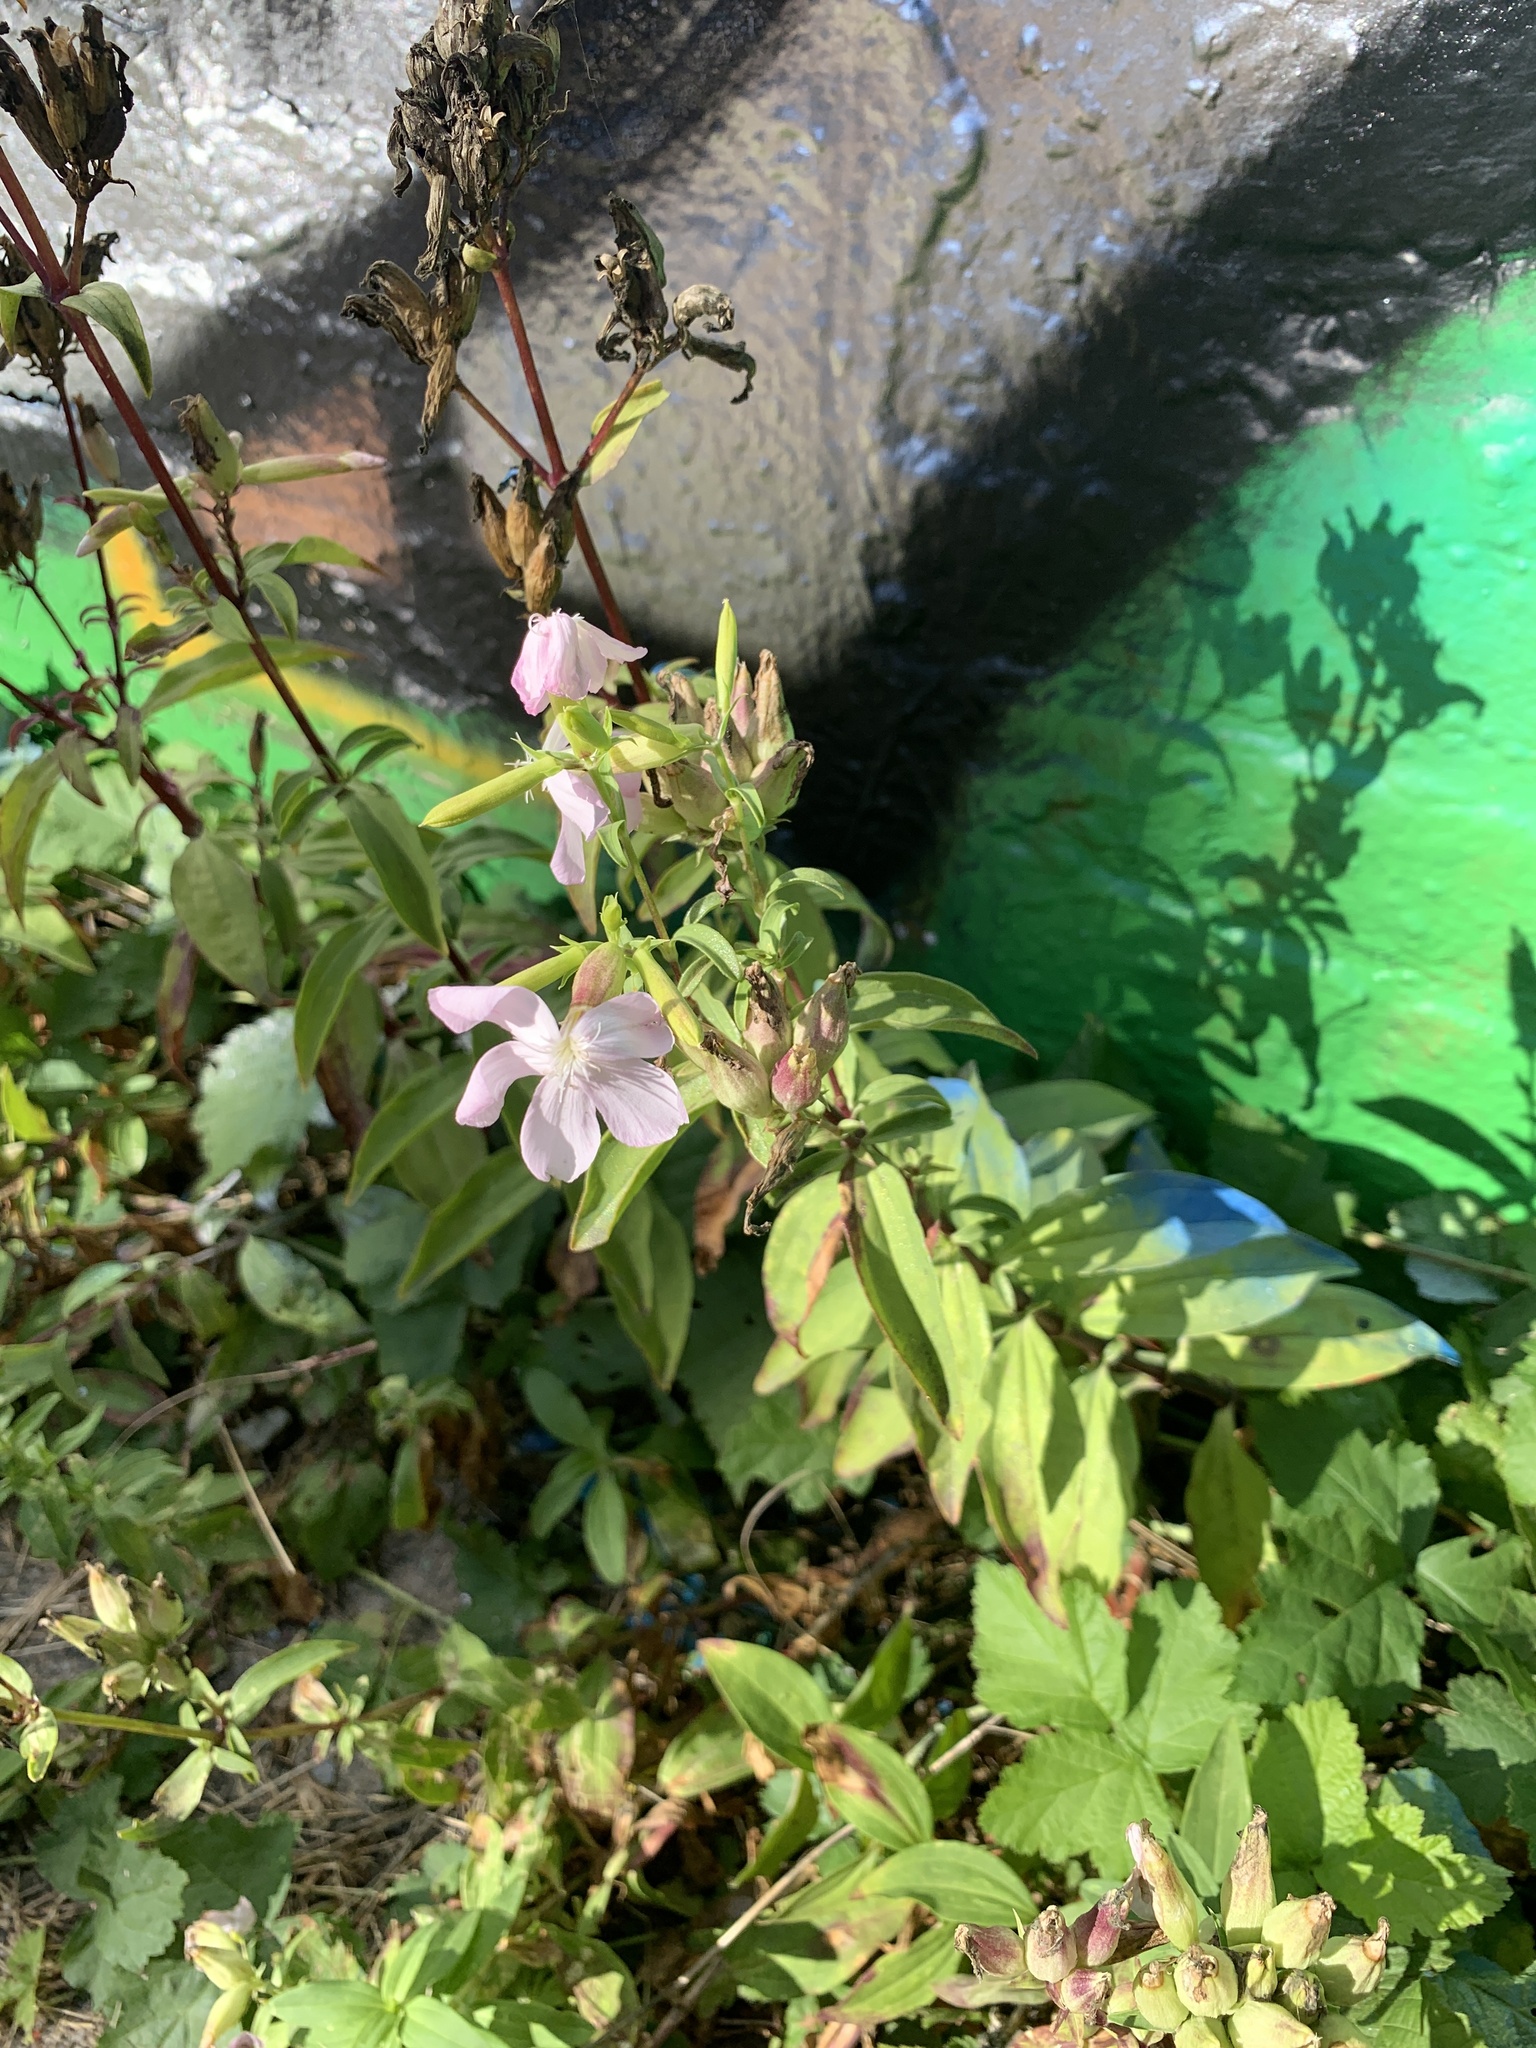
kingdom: Plantae
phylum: Tracheophyta
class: Magnoliopsida
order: Caryophyllales
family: Caryophyllaceae
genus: Saponaria
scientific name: Saponaria officinalis
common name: Soapwort
